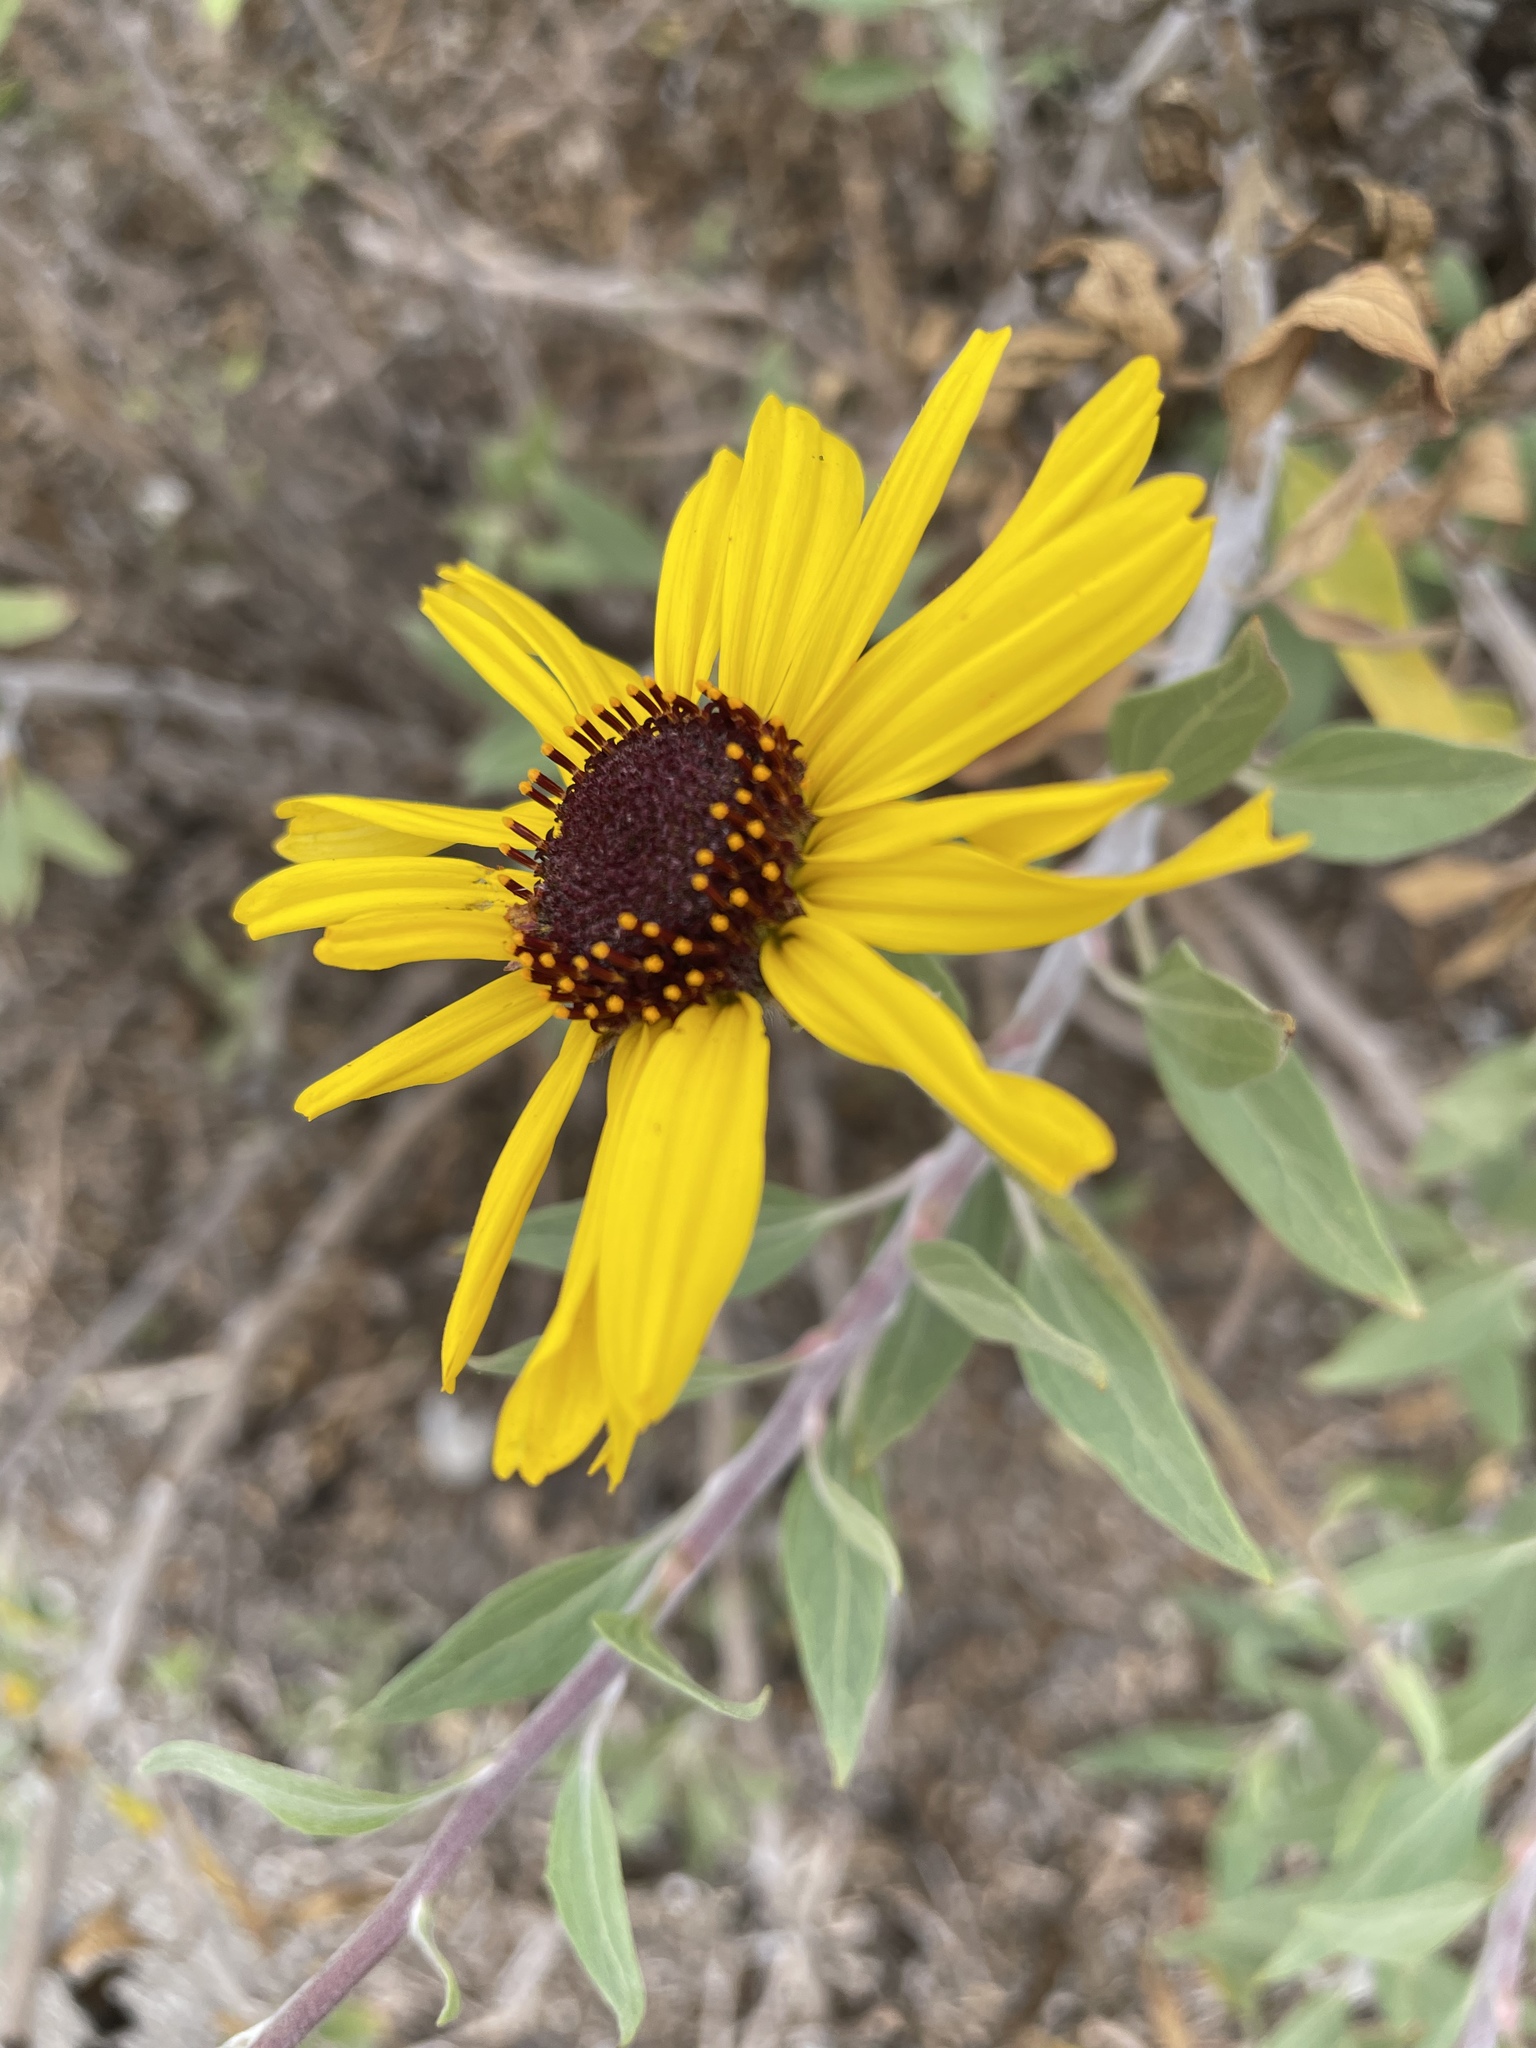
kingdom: Plantae
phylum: Tracheophyta
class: Magnoliopsida
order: Asterales
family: Asteraceae
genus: Encelia
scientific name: Encelia californica
